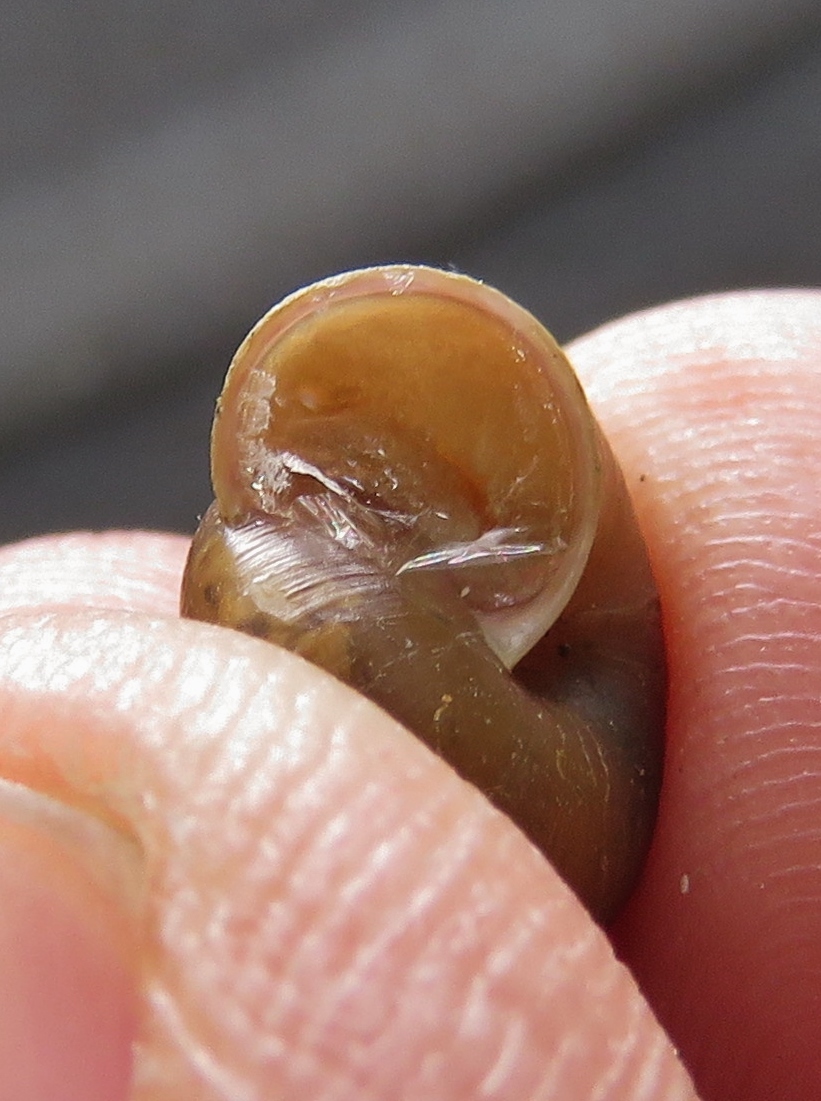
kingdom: Animalia
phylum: Mollusca
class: Gastropoda
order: Stylommatophora
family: Camaenidae
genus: Bradybaena
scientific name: Bradybaena similaris
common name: Asian trampsnail
